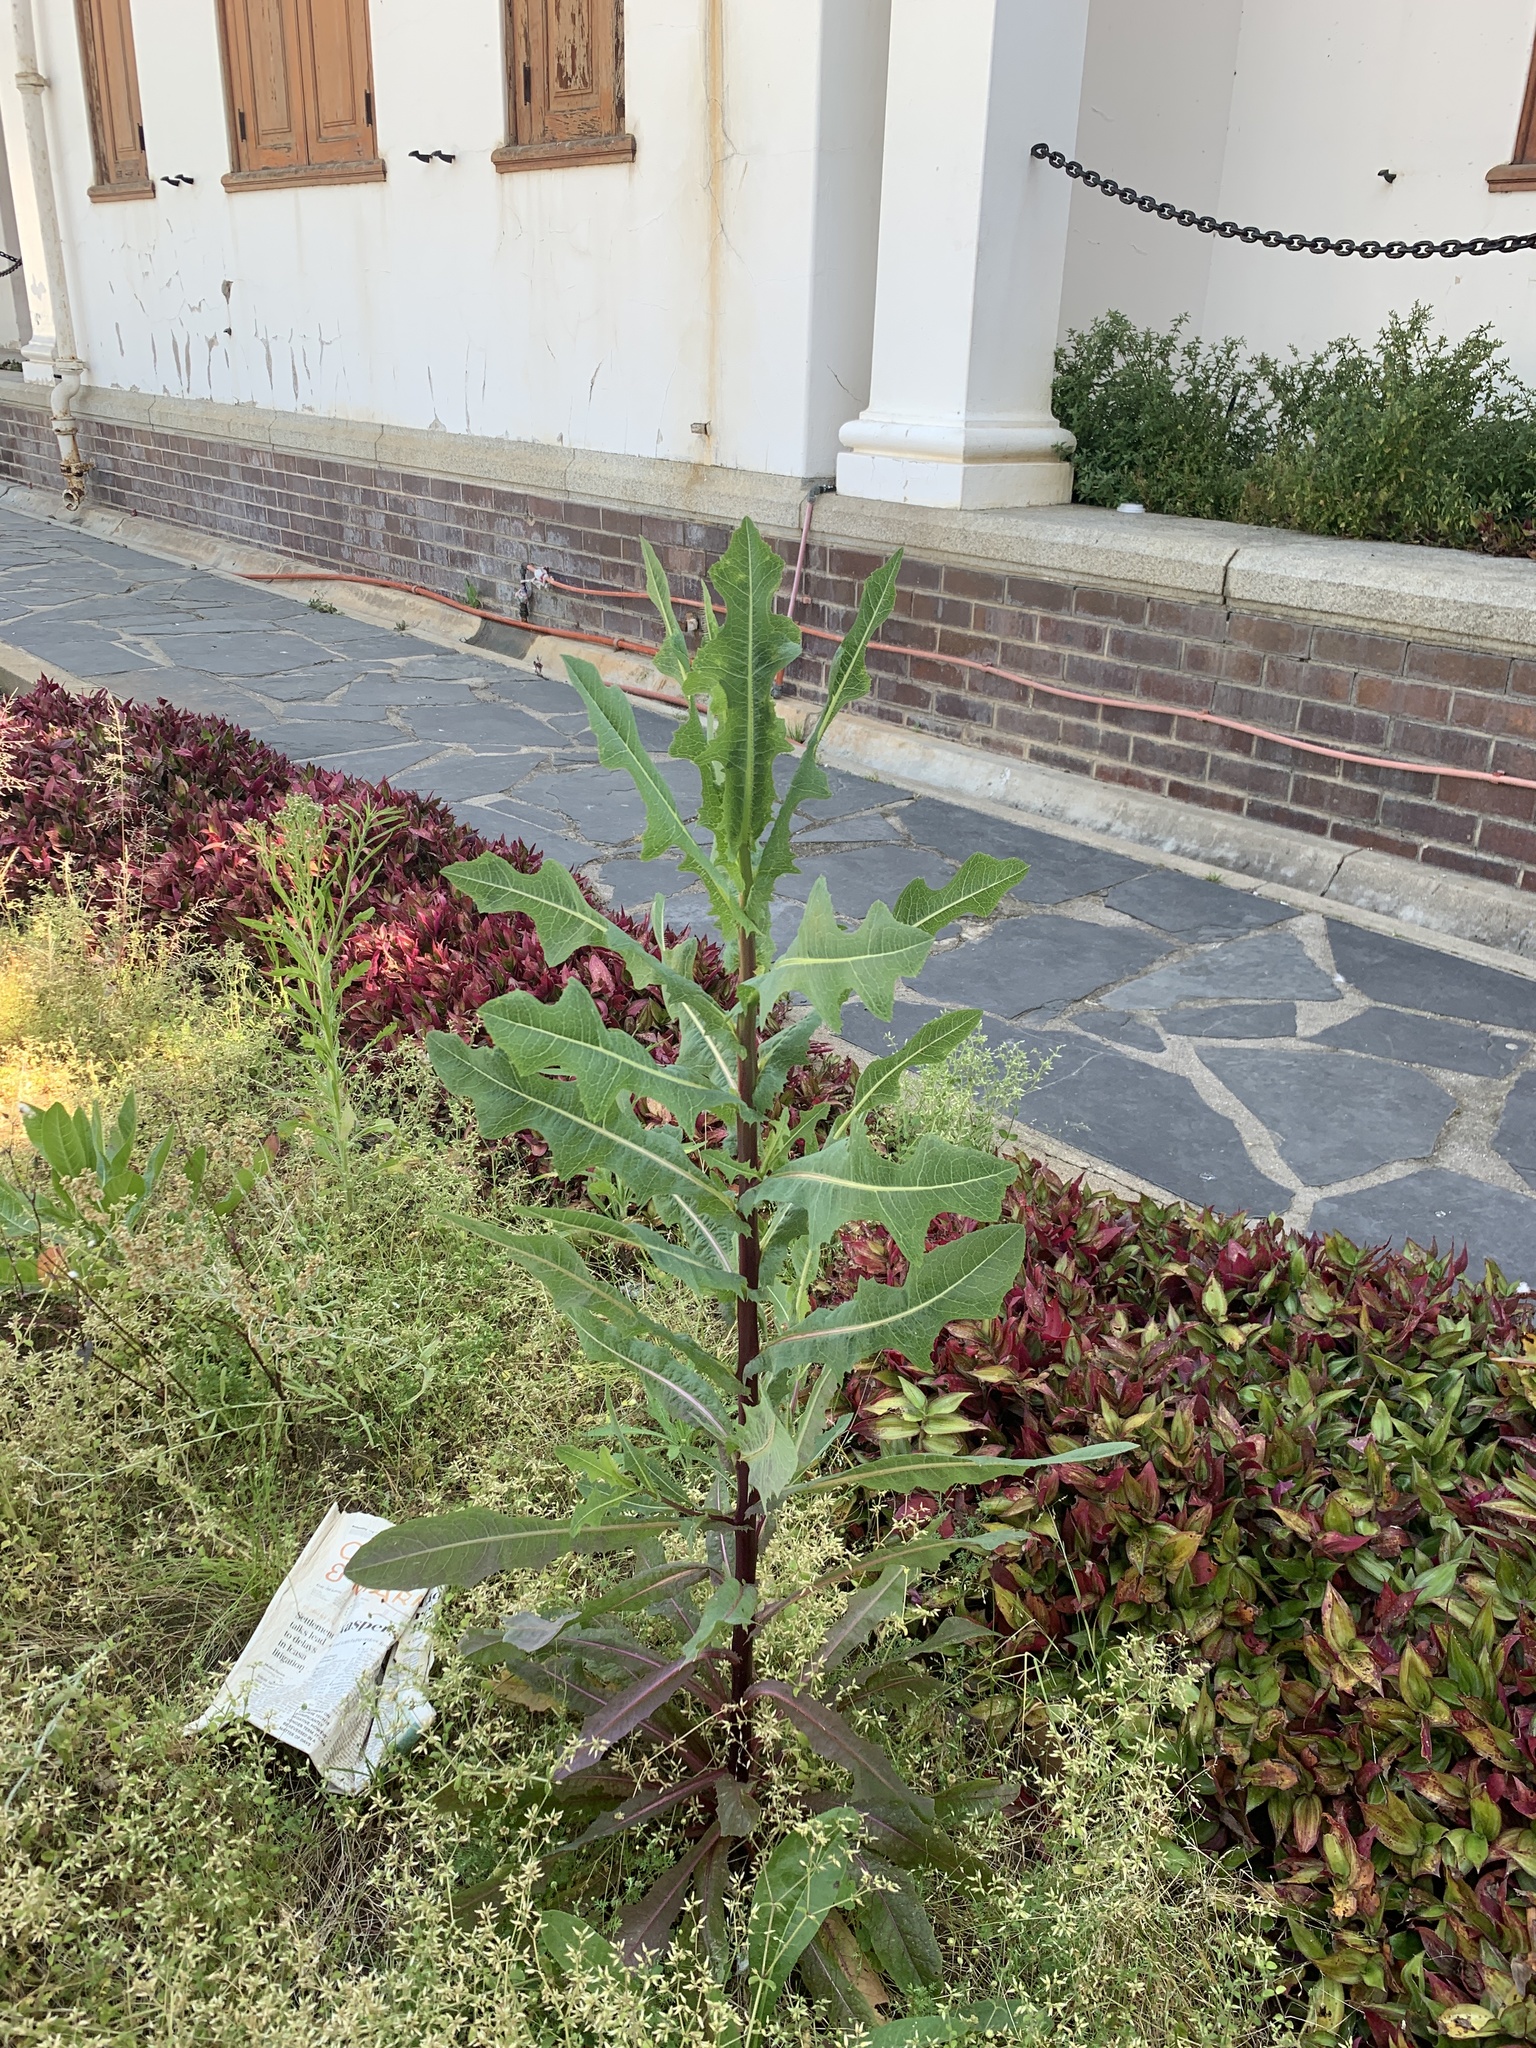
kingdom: Plantae
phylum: Tracheophyta
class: Magnoliopsida
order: Asterales
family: Asteraceae
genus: Lactuca
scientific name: Lactuca serriola
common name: Prickly lettuce
